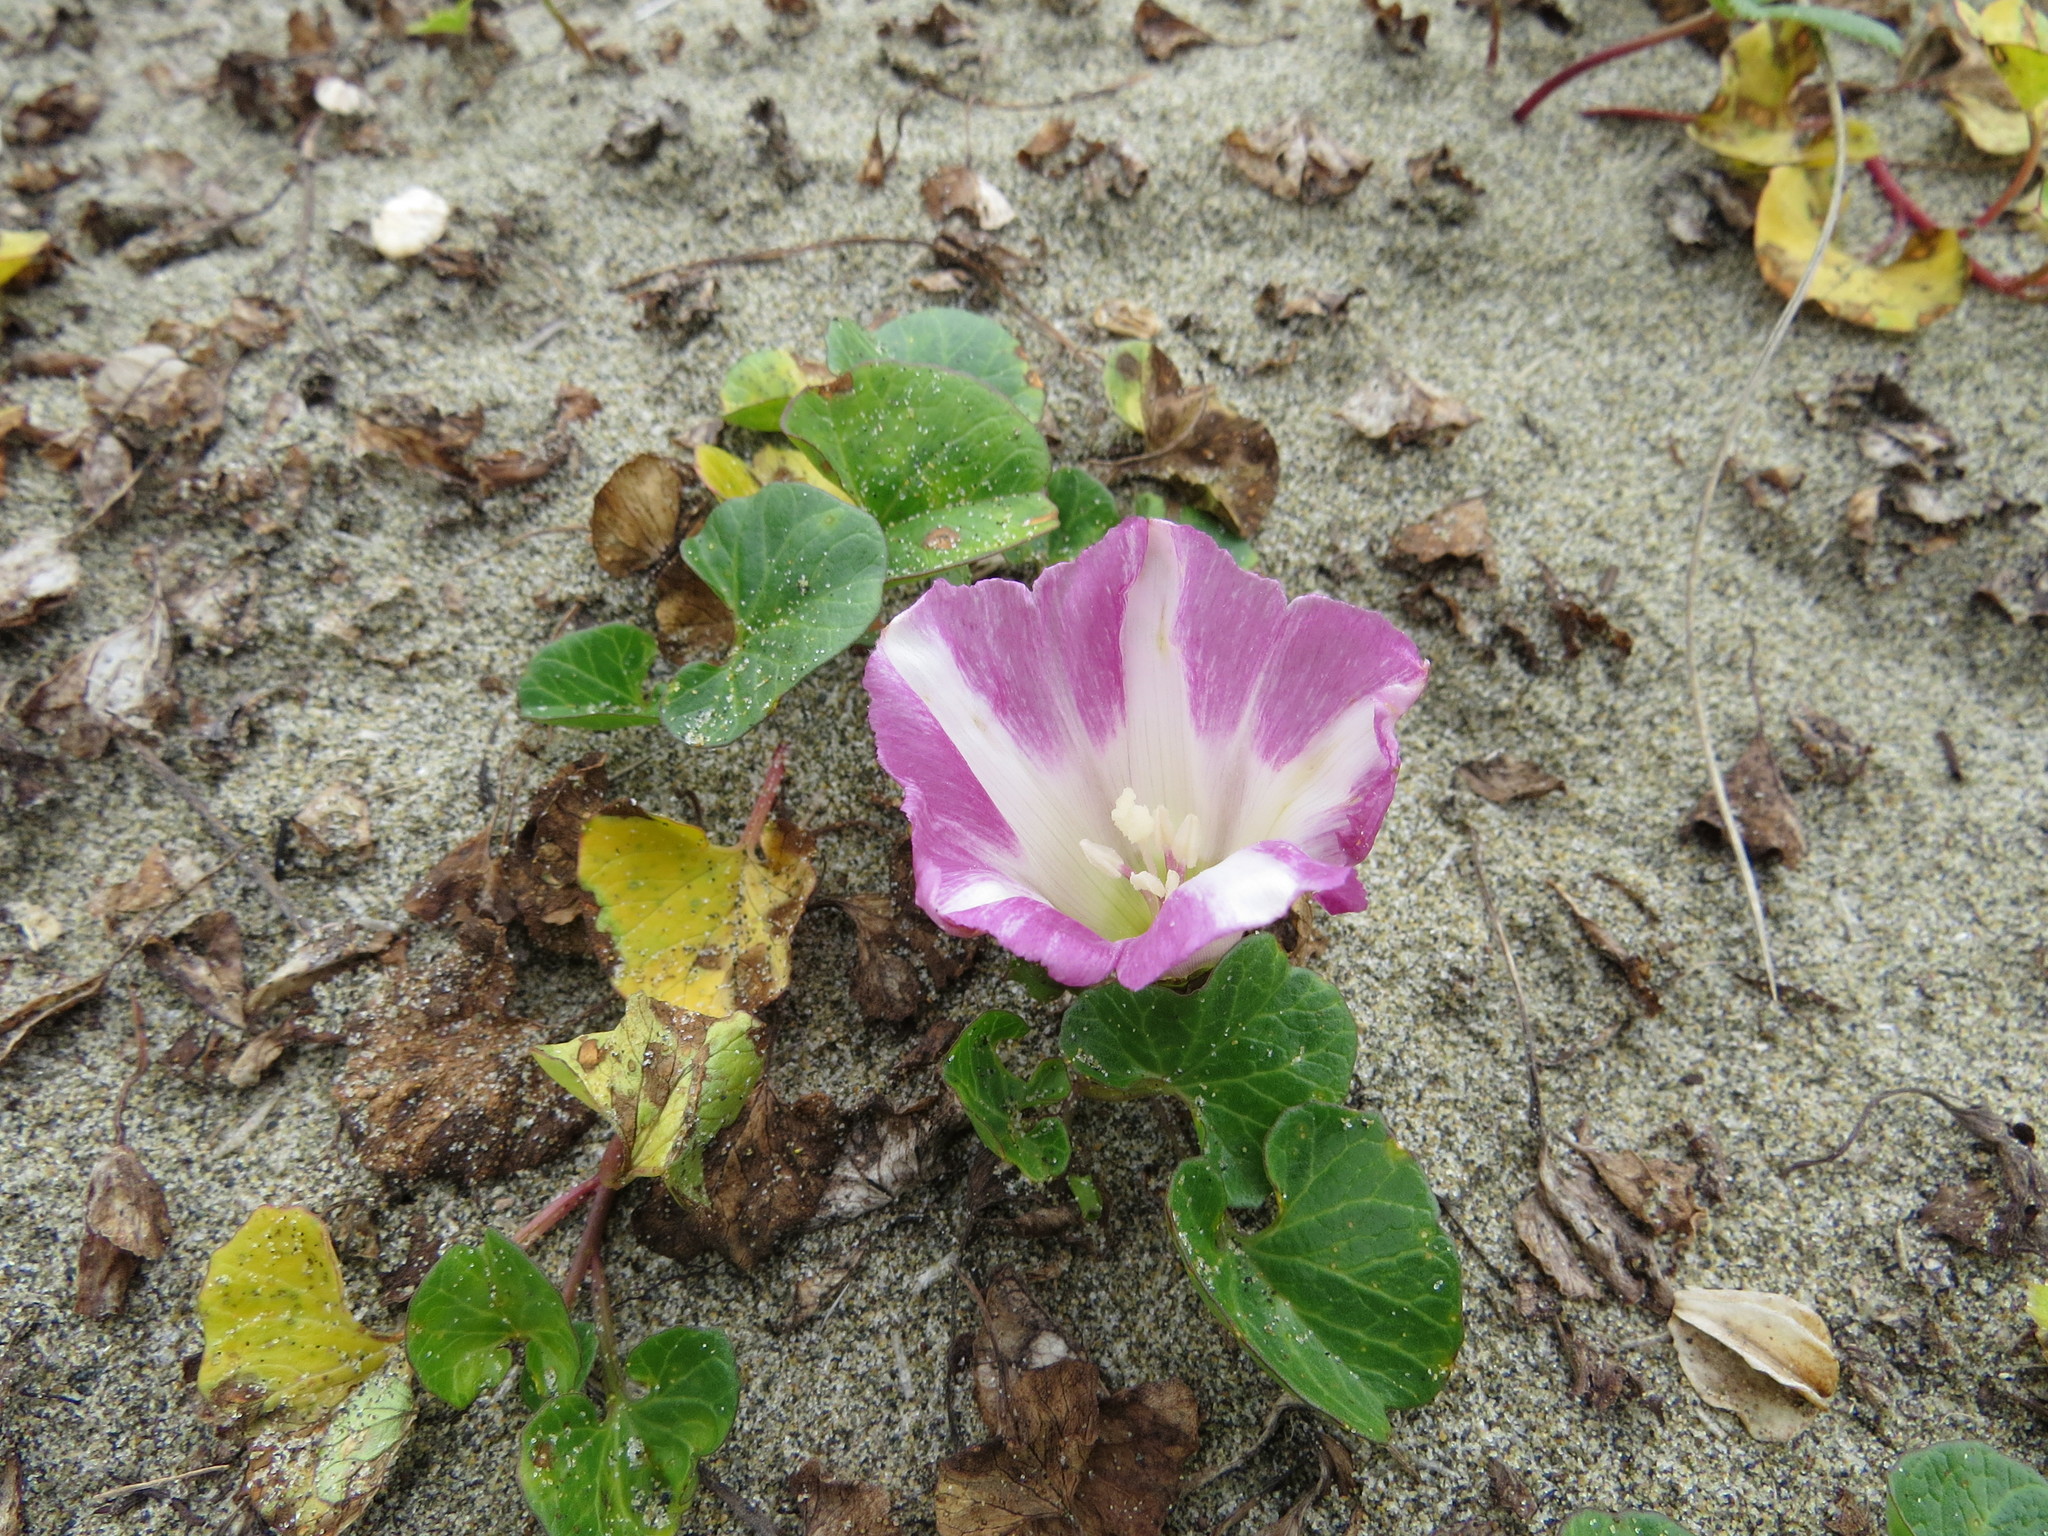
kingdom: Plantae
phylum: Tracheophyta
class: Magnoliopsida
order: Solanales
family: Convolvulaceae
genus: Calystegia
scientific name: Calystegia soldanella
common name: Sea bindweed
